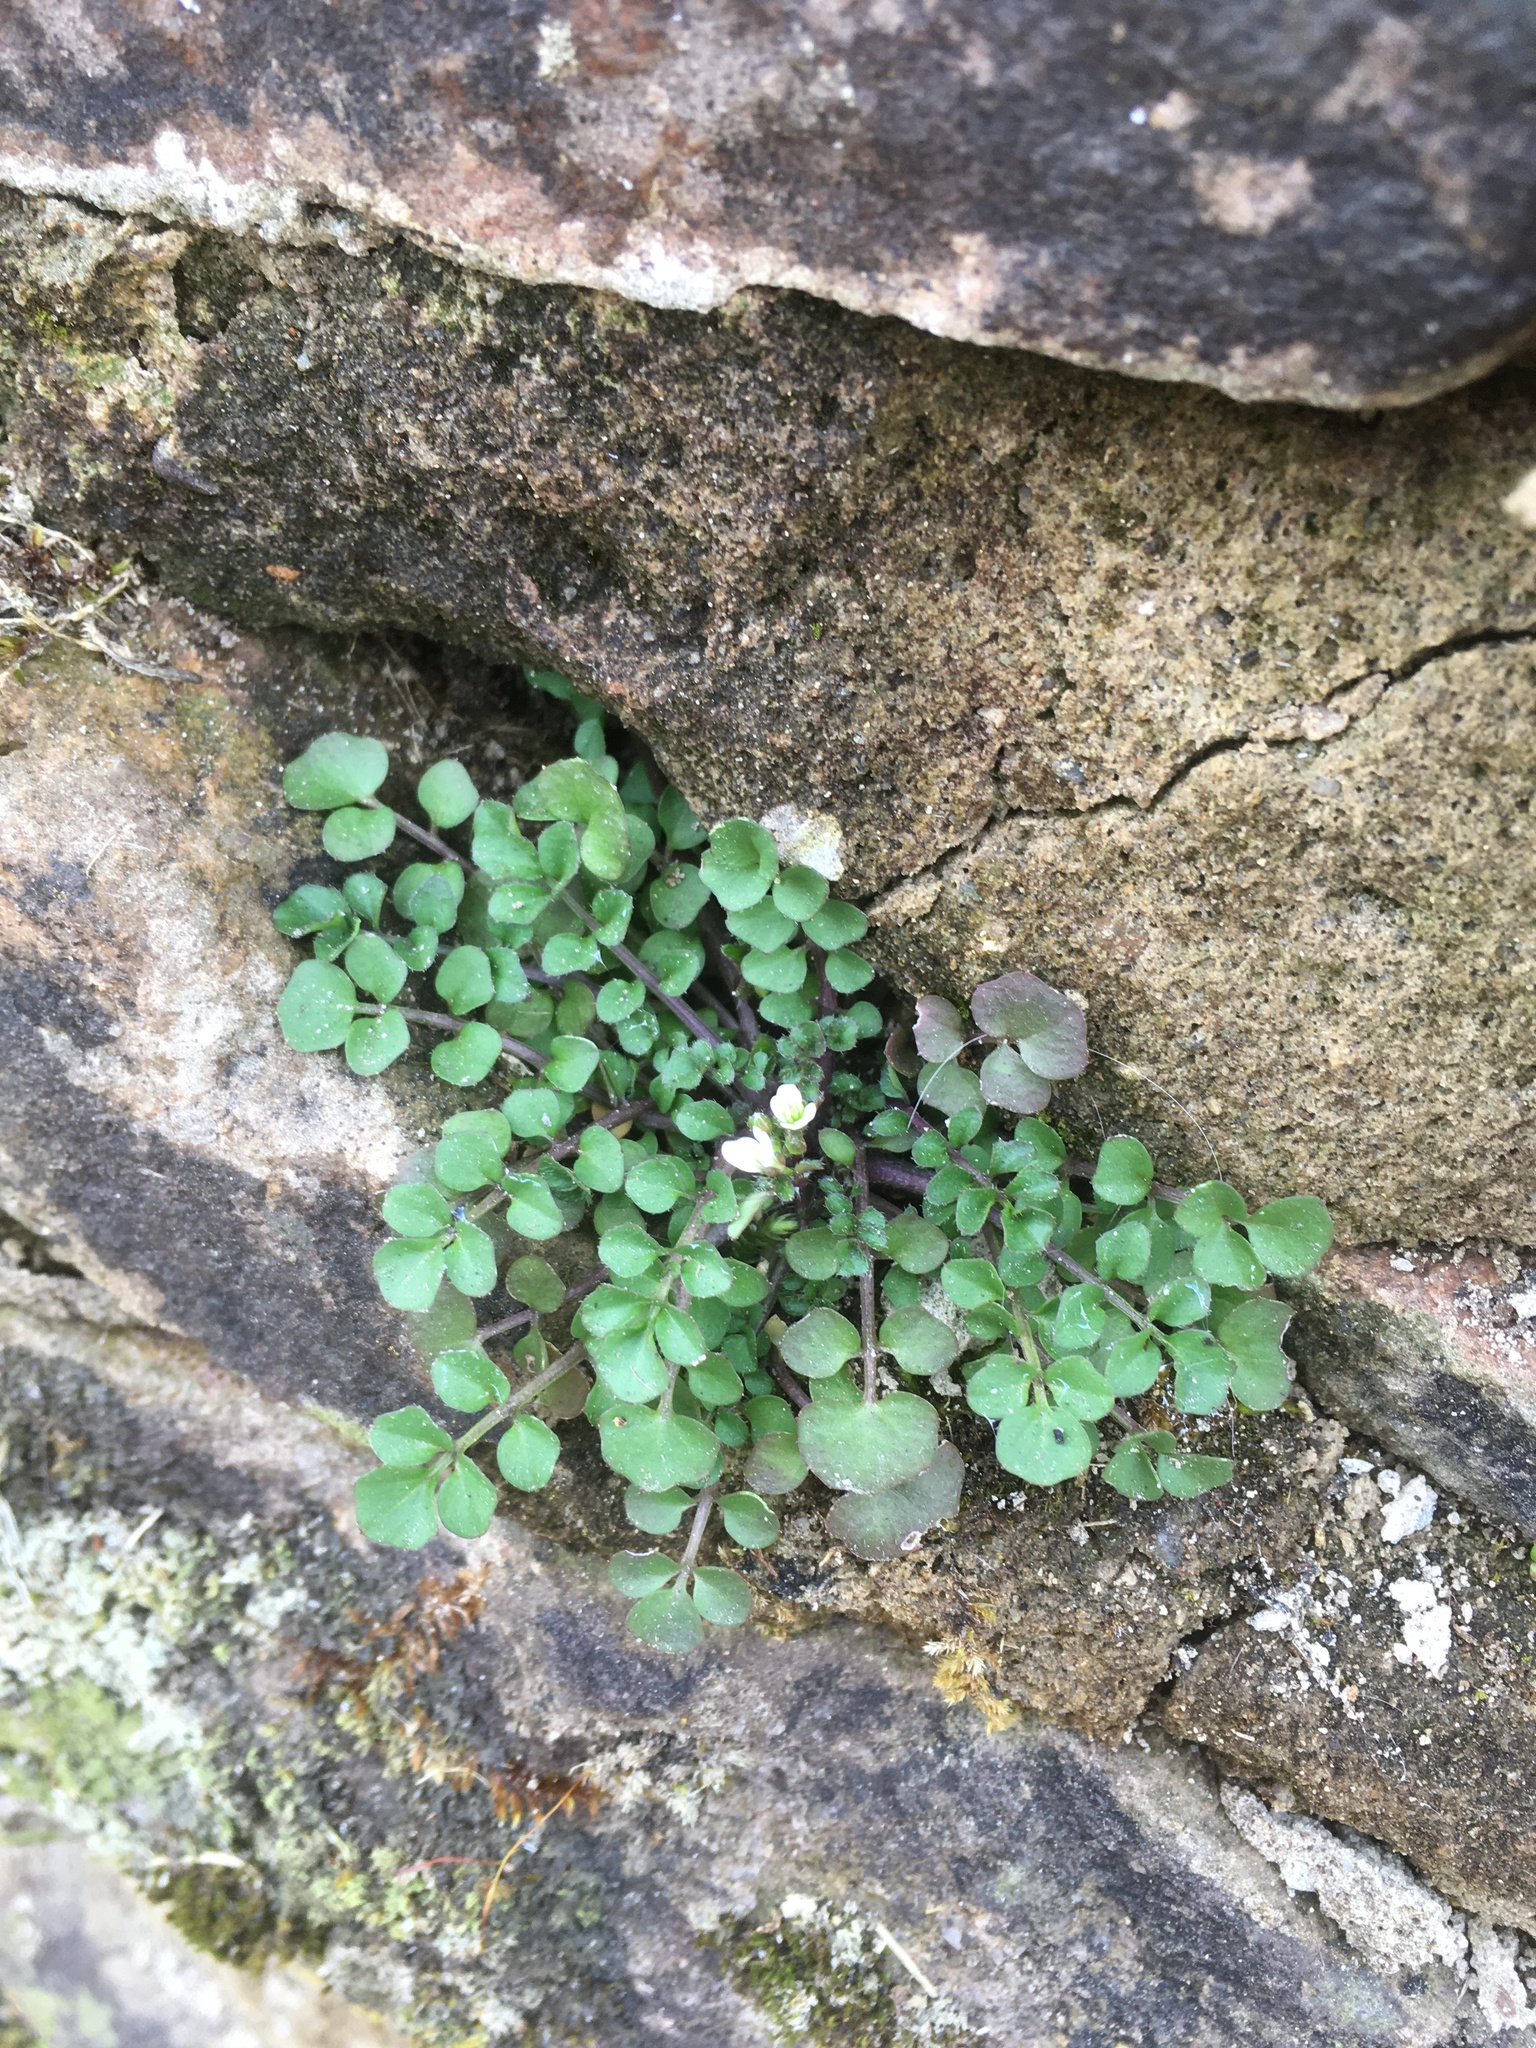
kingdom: Plantae
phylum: Tracheophyta
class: Magnoliopsida
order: Brassicales
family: Brassicaceae
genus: Cardamine
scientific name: Cardamine hirsuta
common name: Hairy bittercress
